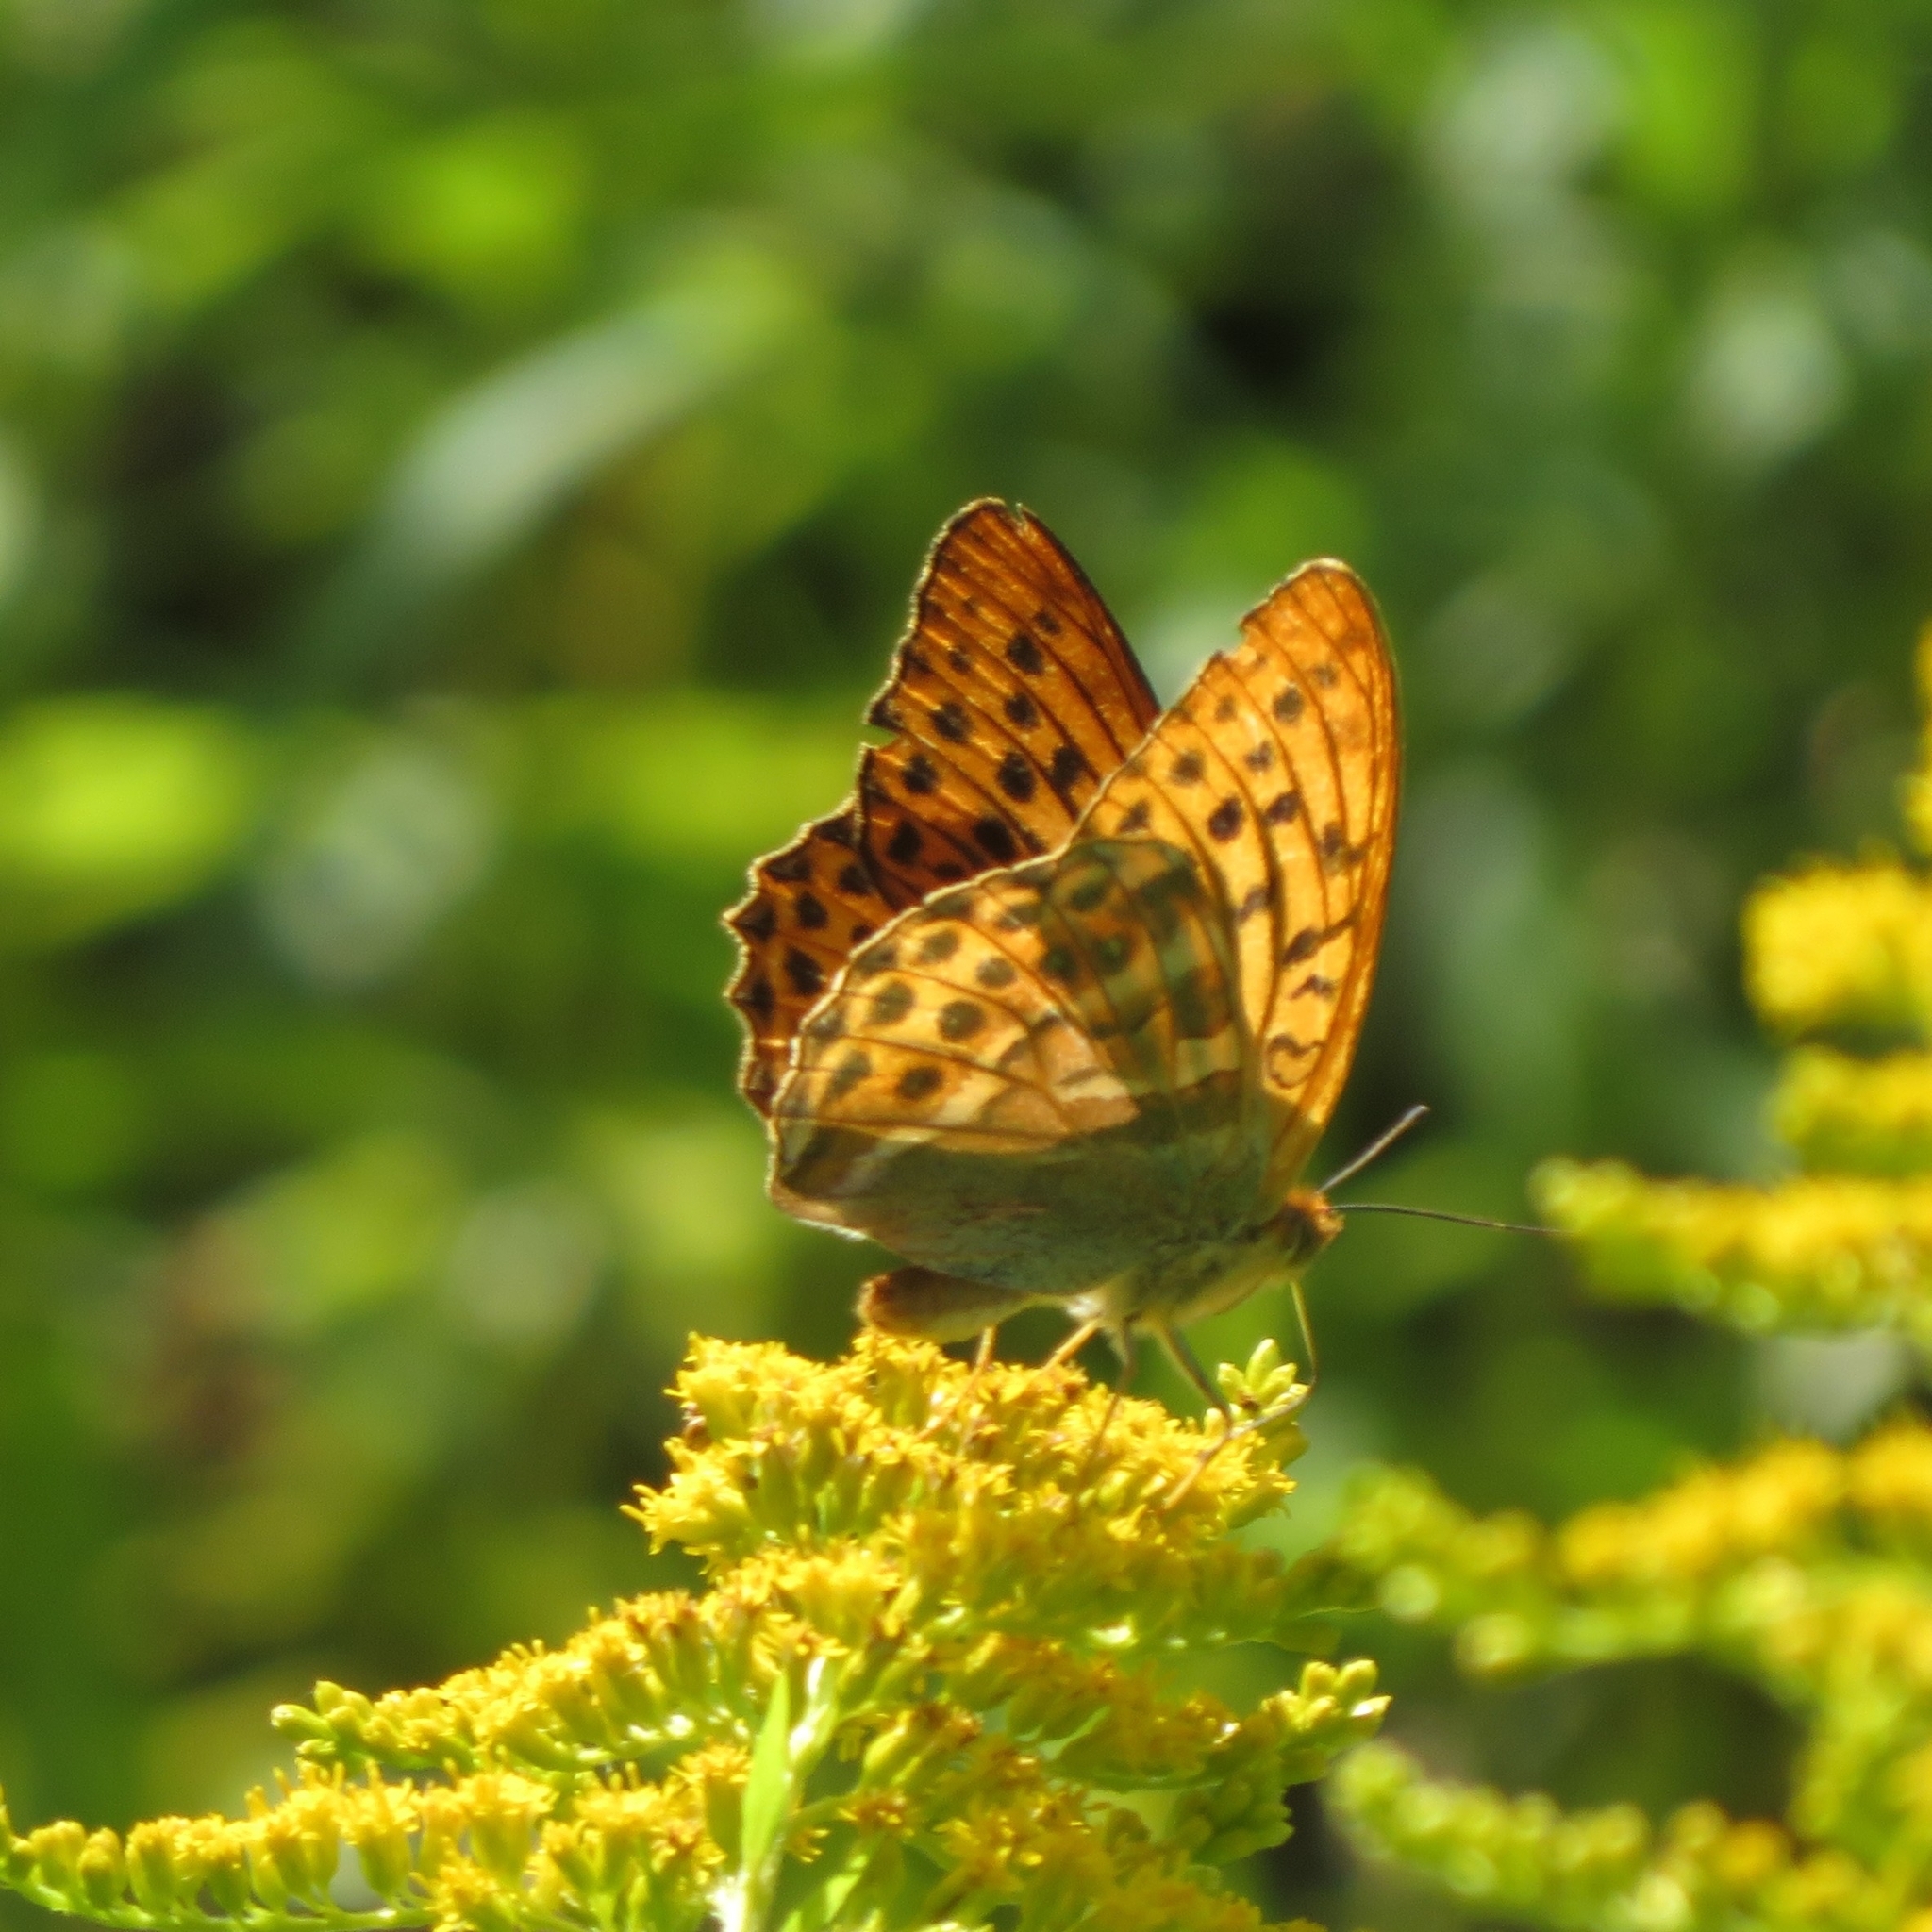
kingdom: Animalia
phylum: Arthropoda
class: Insecta
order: Lepidoptera
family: Nymphalidae
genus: Argynnis
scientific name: Argynnis paphia
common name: Silver-washed fritillary
